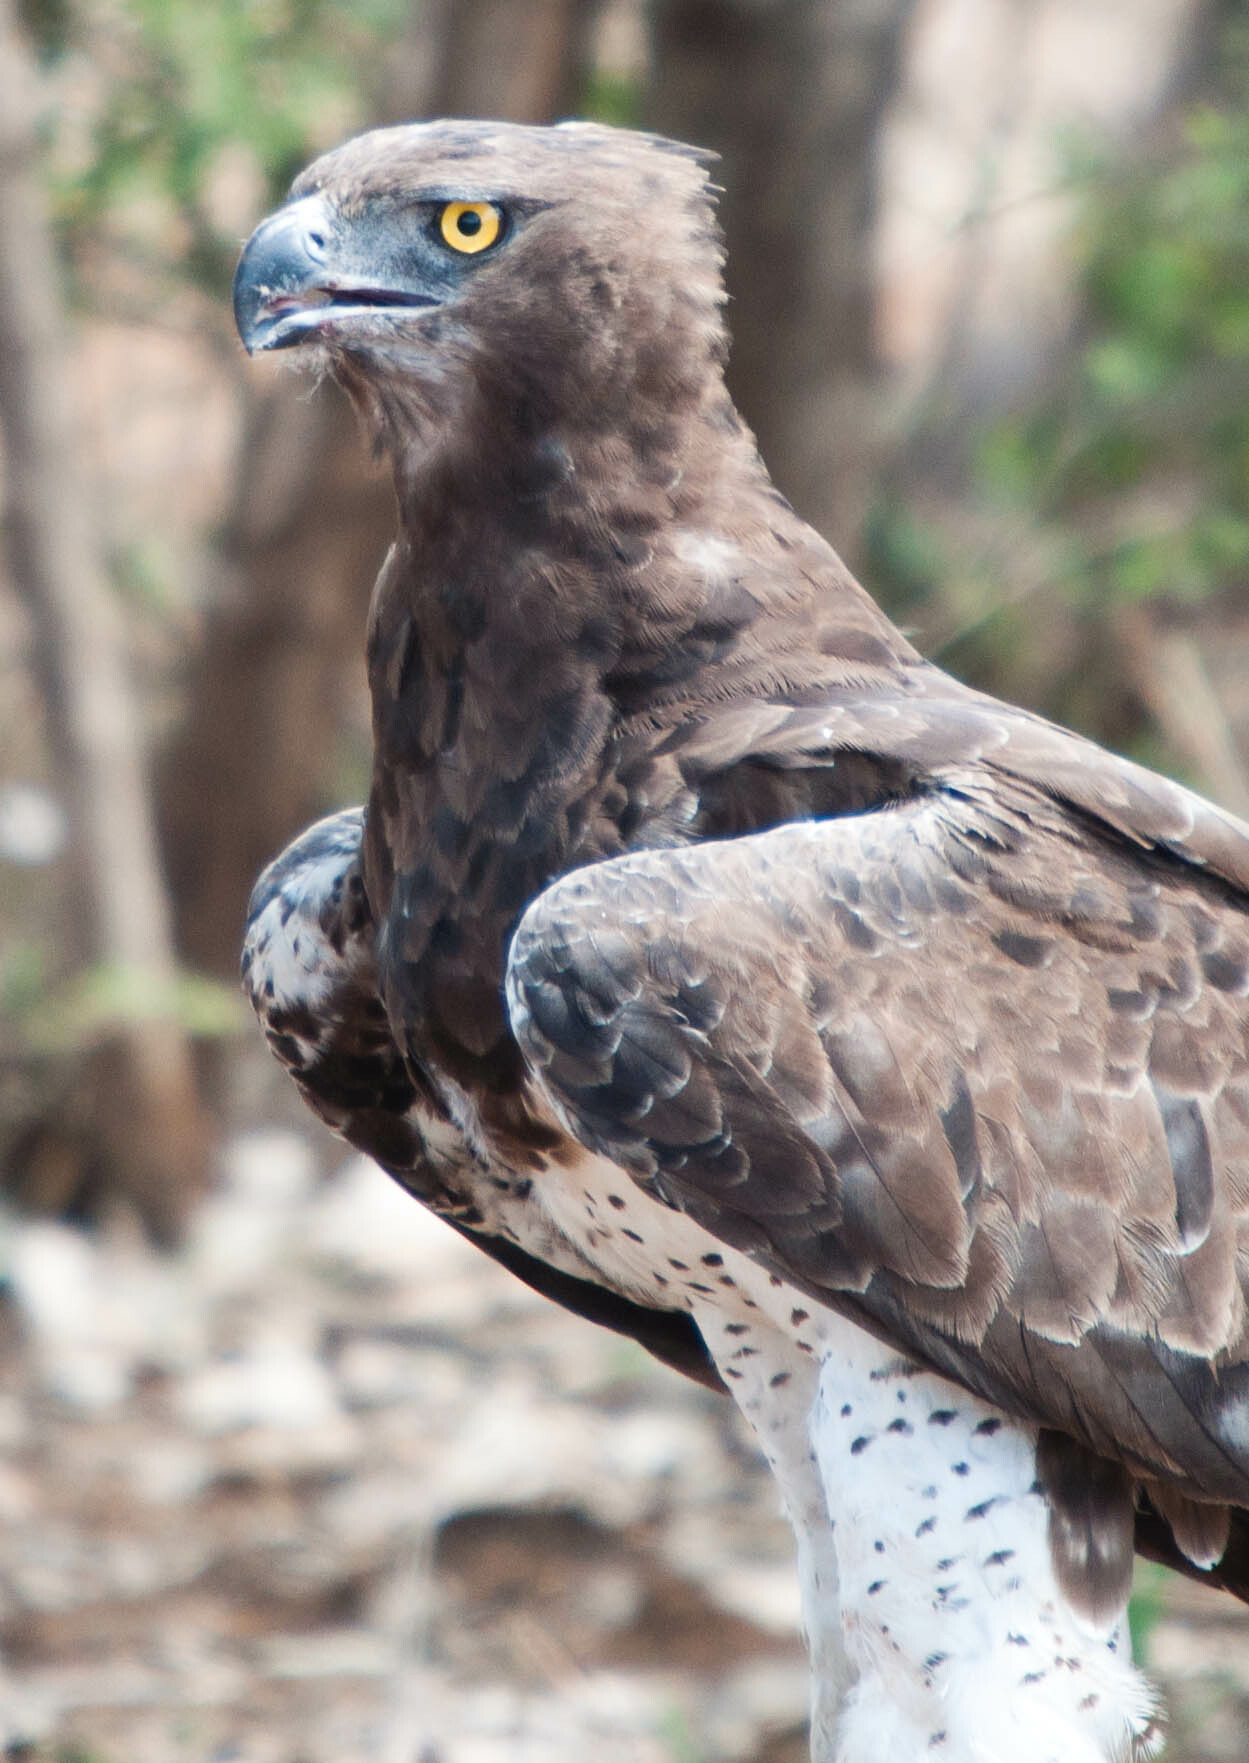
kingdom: Animalia
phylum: Chordata
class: Aves
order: Accipitriformes
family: Accipitridae
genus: Polemaetus
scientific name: Polemaetus bellicosus
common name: Martial eagle
